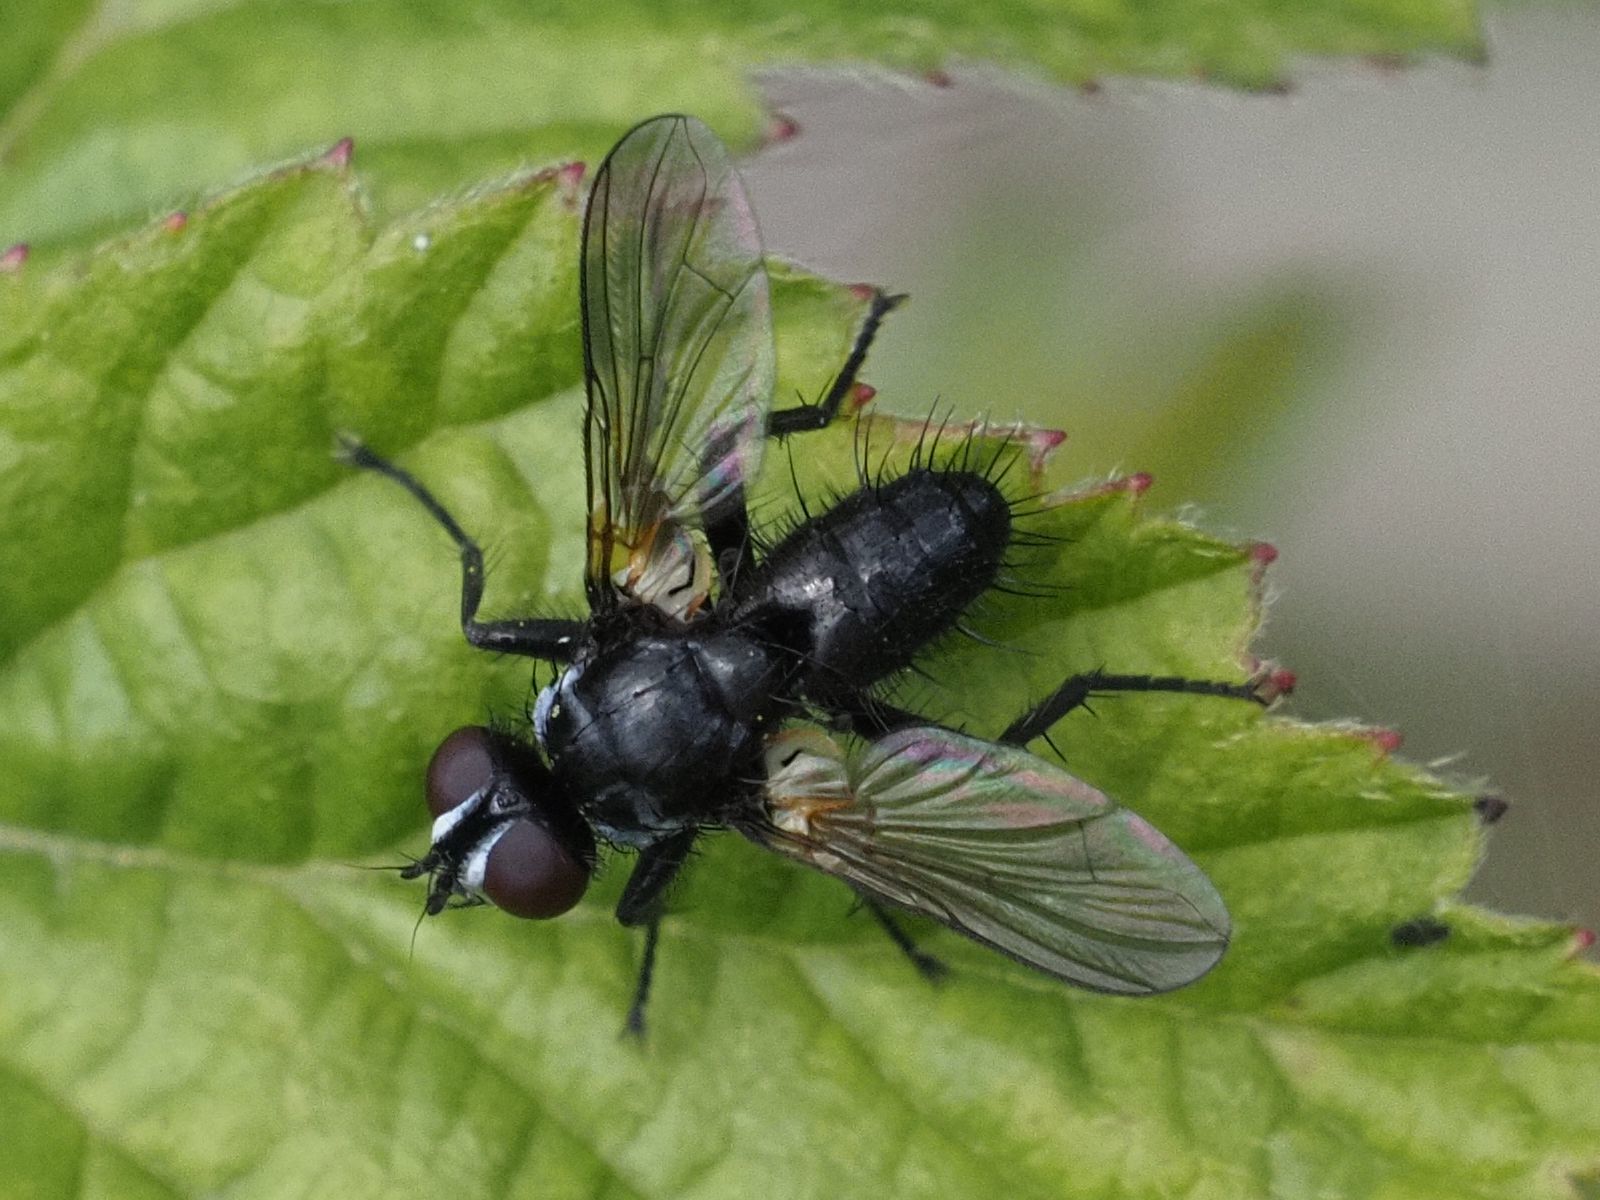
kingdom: Animalia
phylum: Arthropoda
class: Insecta
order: Diptera
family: Tachinidae
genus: Phania
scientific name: Phania funesta
